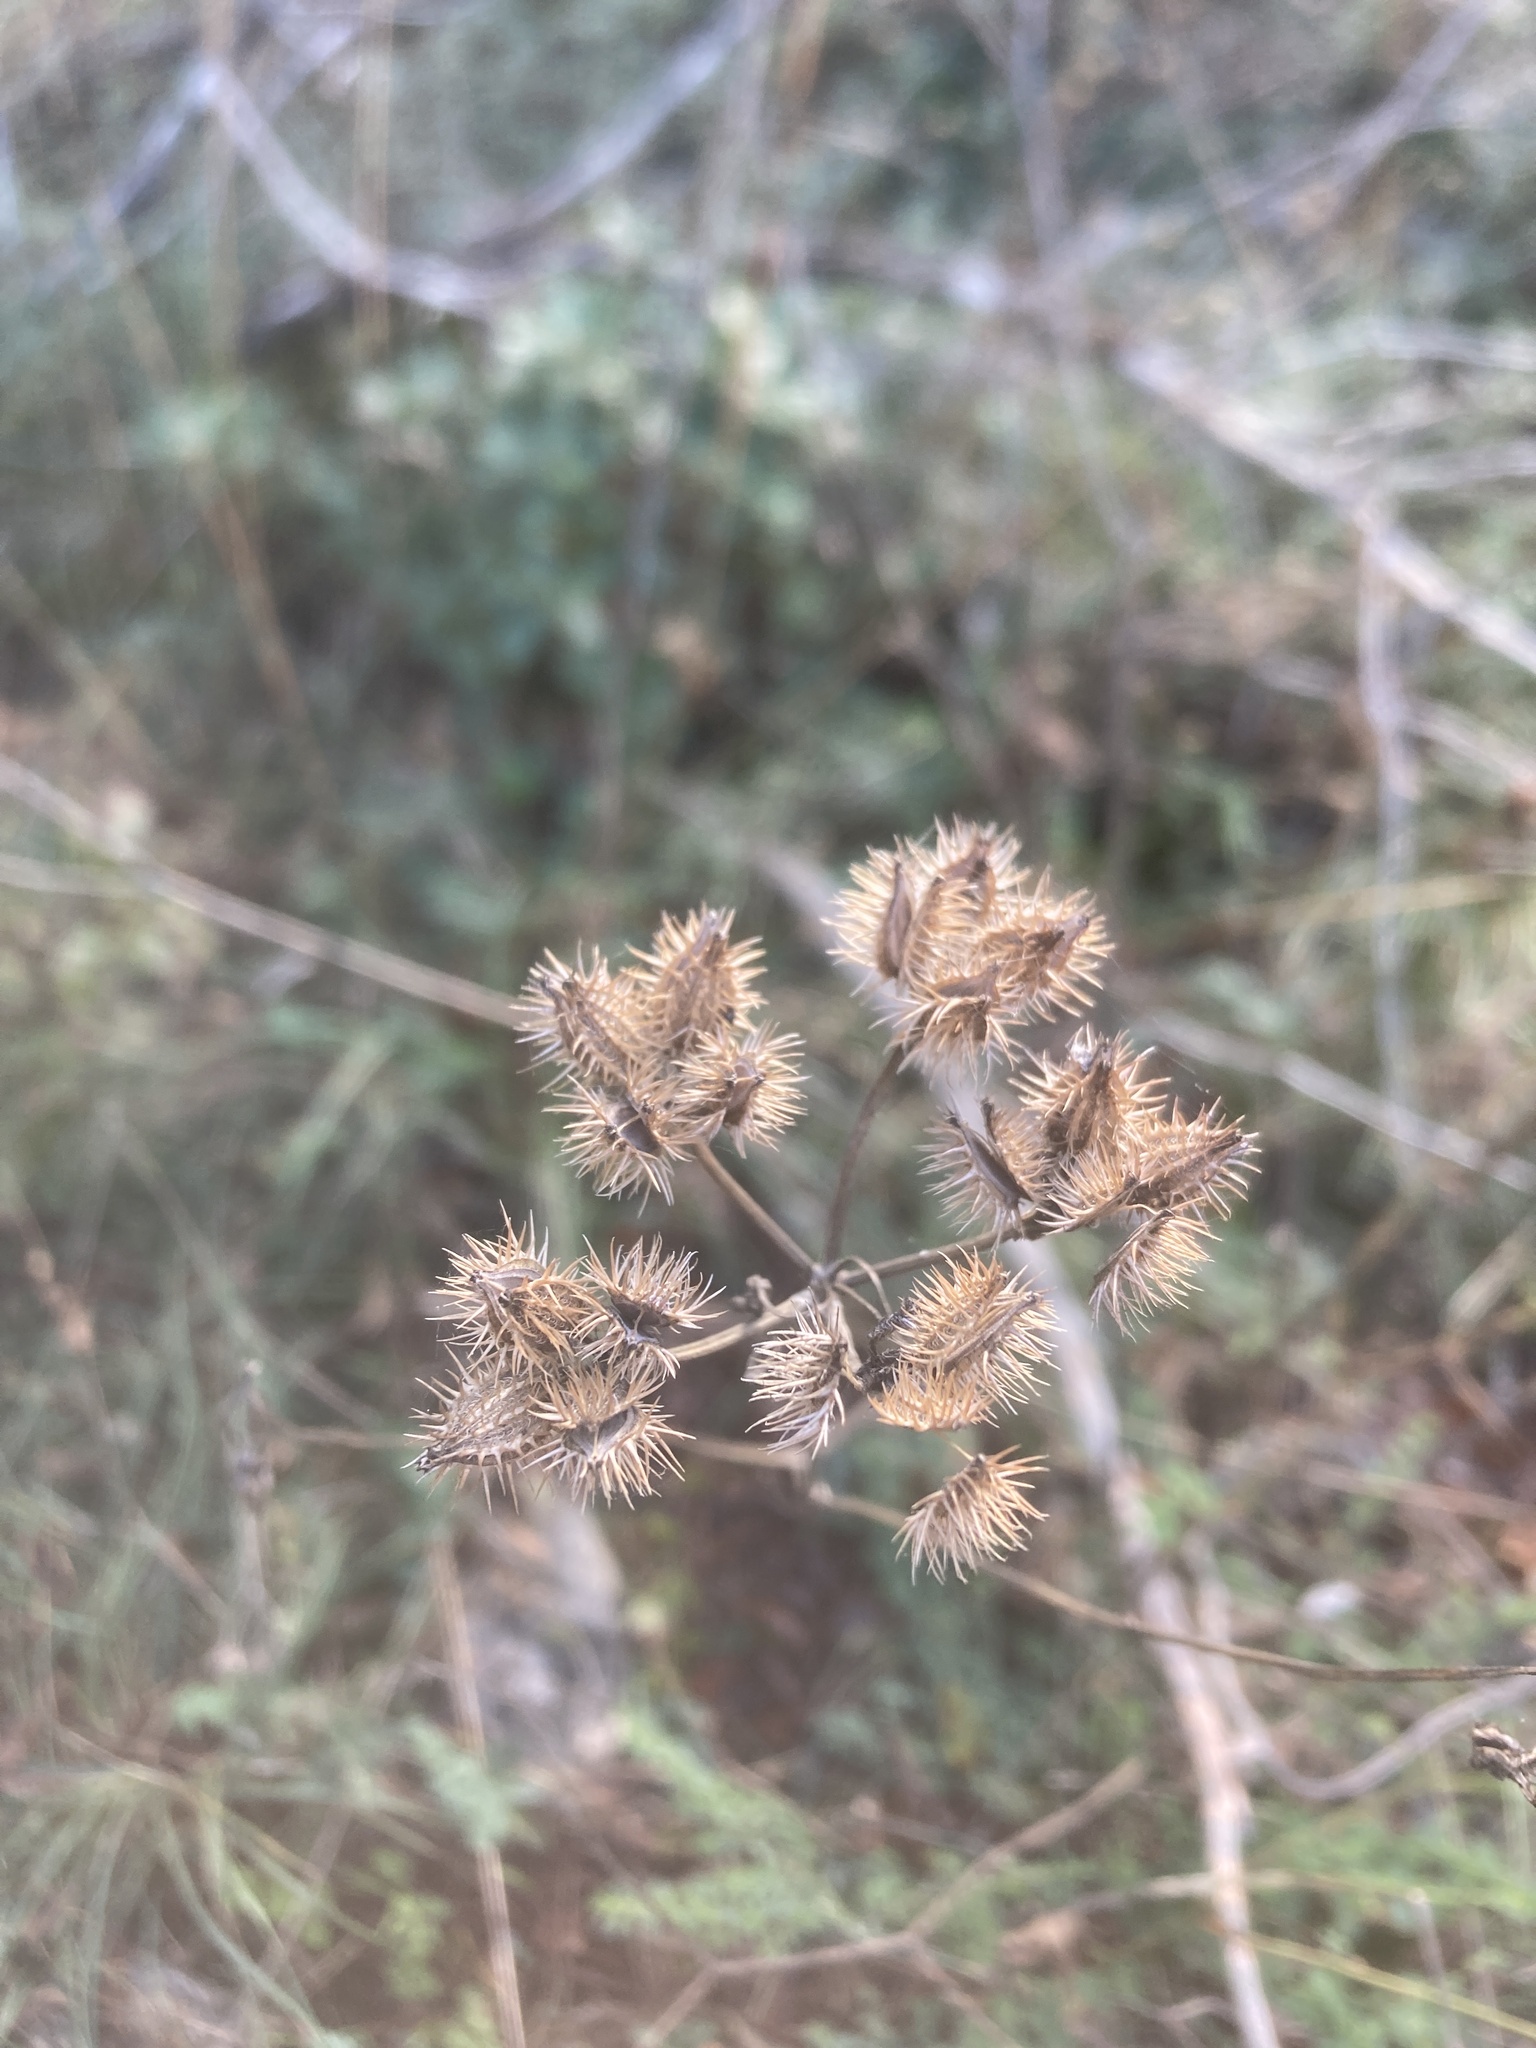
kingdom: Plantae
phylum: Tracheophyta
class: Magnoliopsida
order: Apiales
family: Apiaceae
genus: Orlaya
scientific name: Orlaya grandiflora
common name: White lace flower
